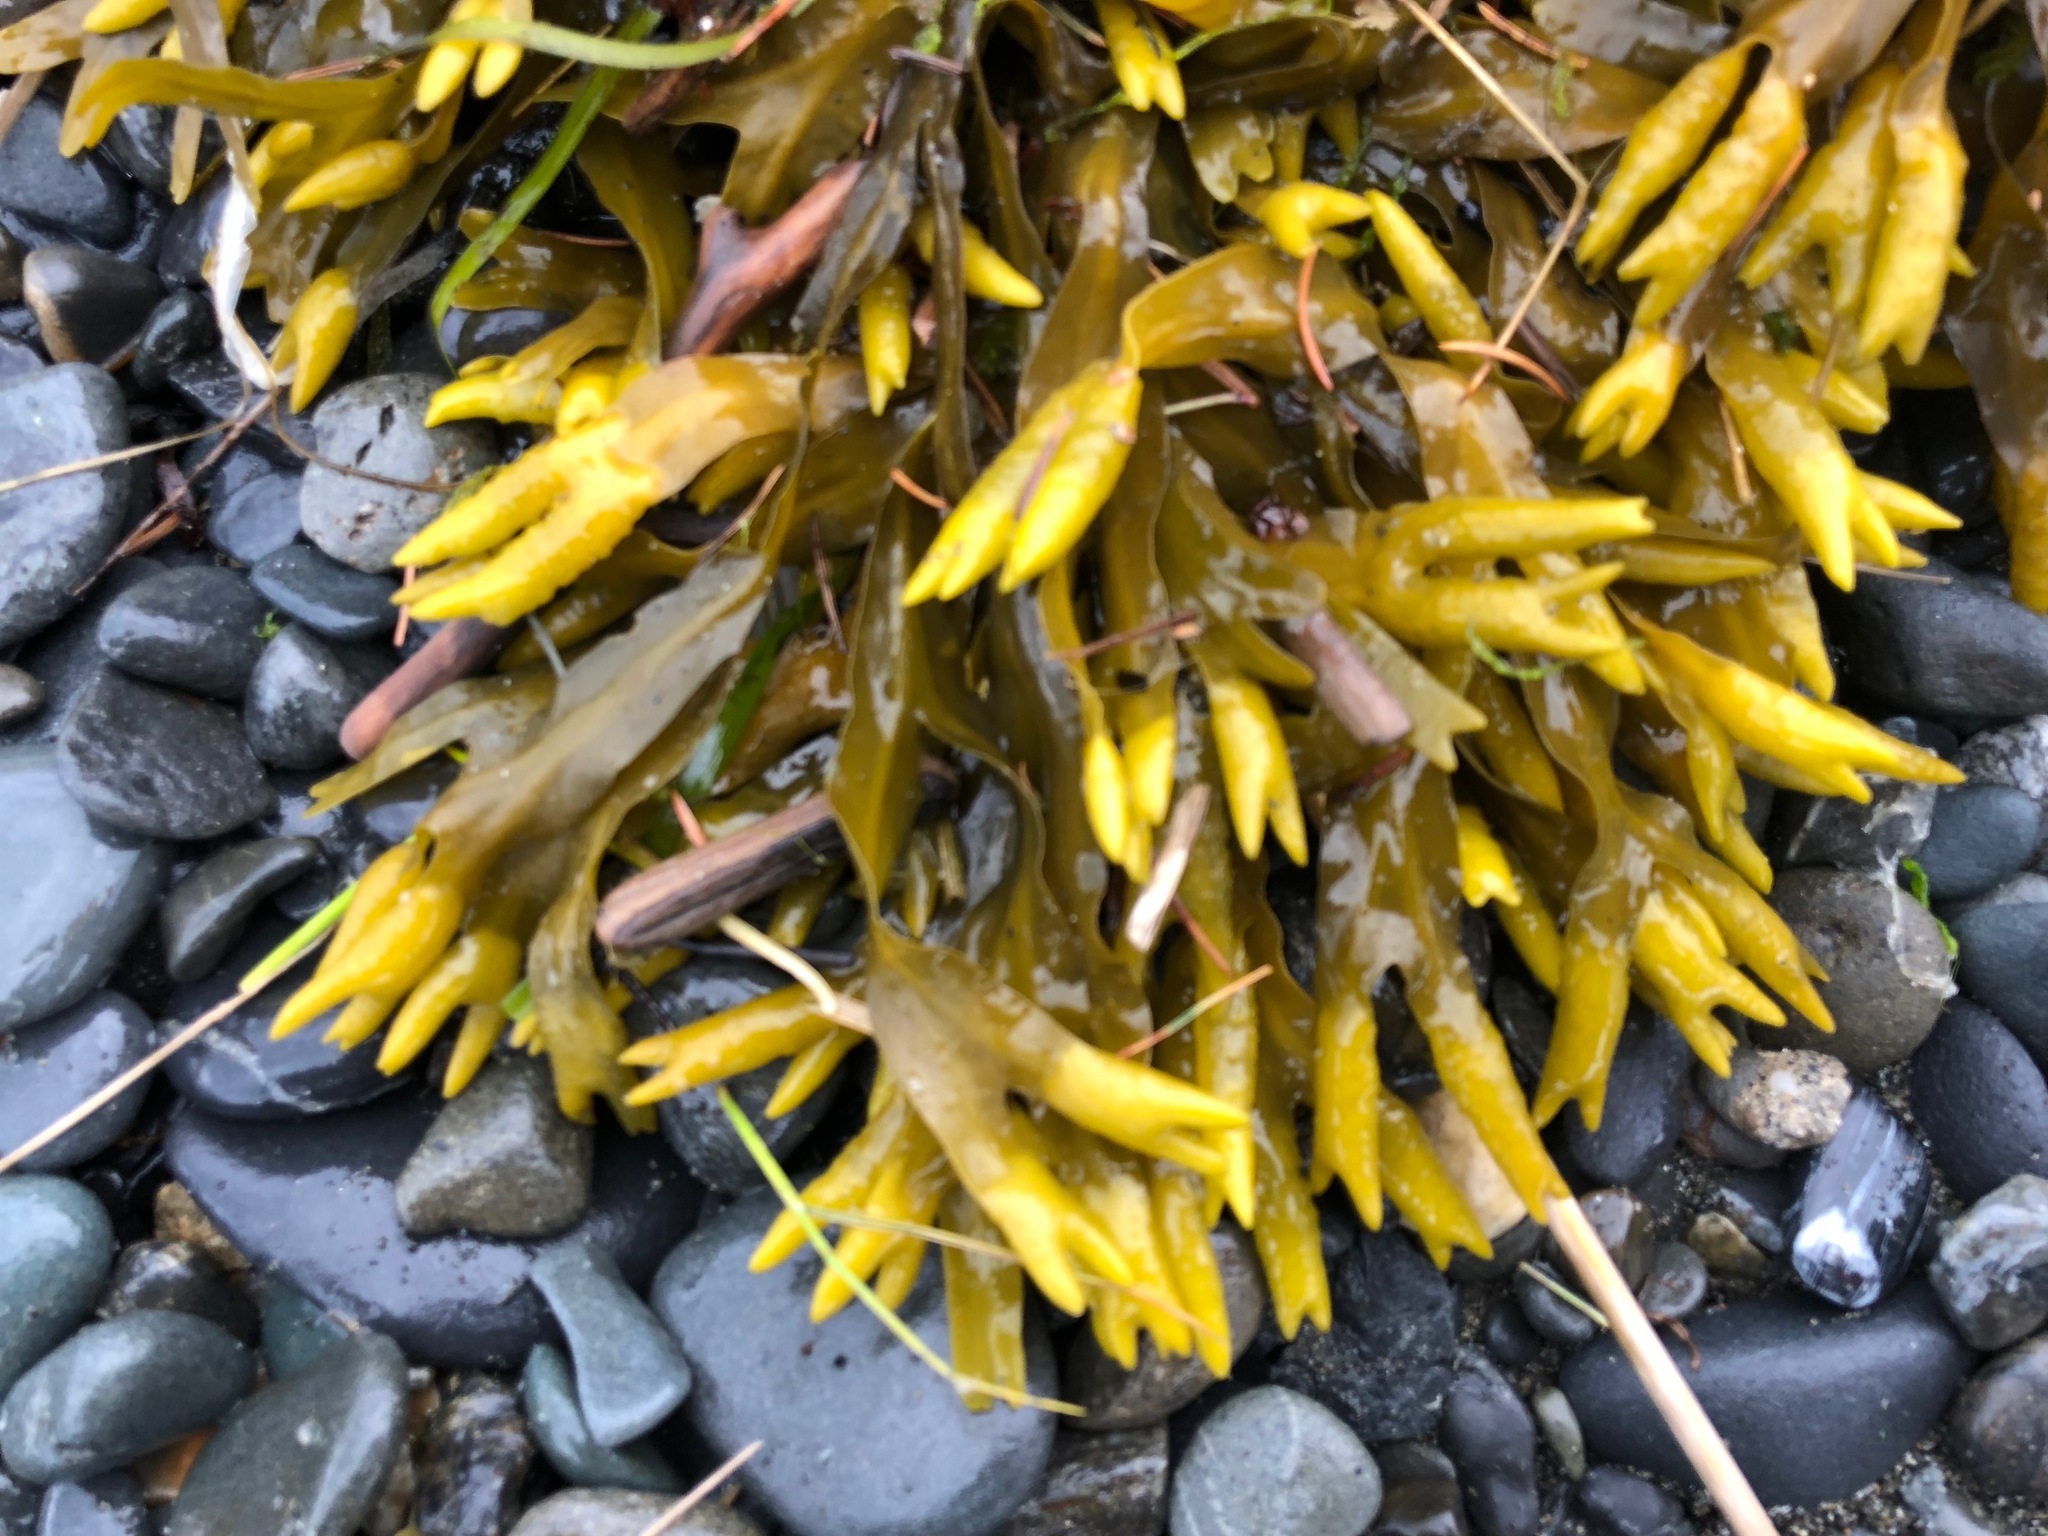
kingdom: Chromista
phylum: Ochrophyta
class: Phaeophyceae
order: Fucales
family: Fucaceae
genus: Fucus
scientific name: Fucus distichus
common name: Rockweed
